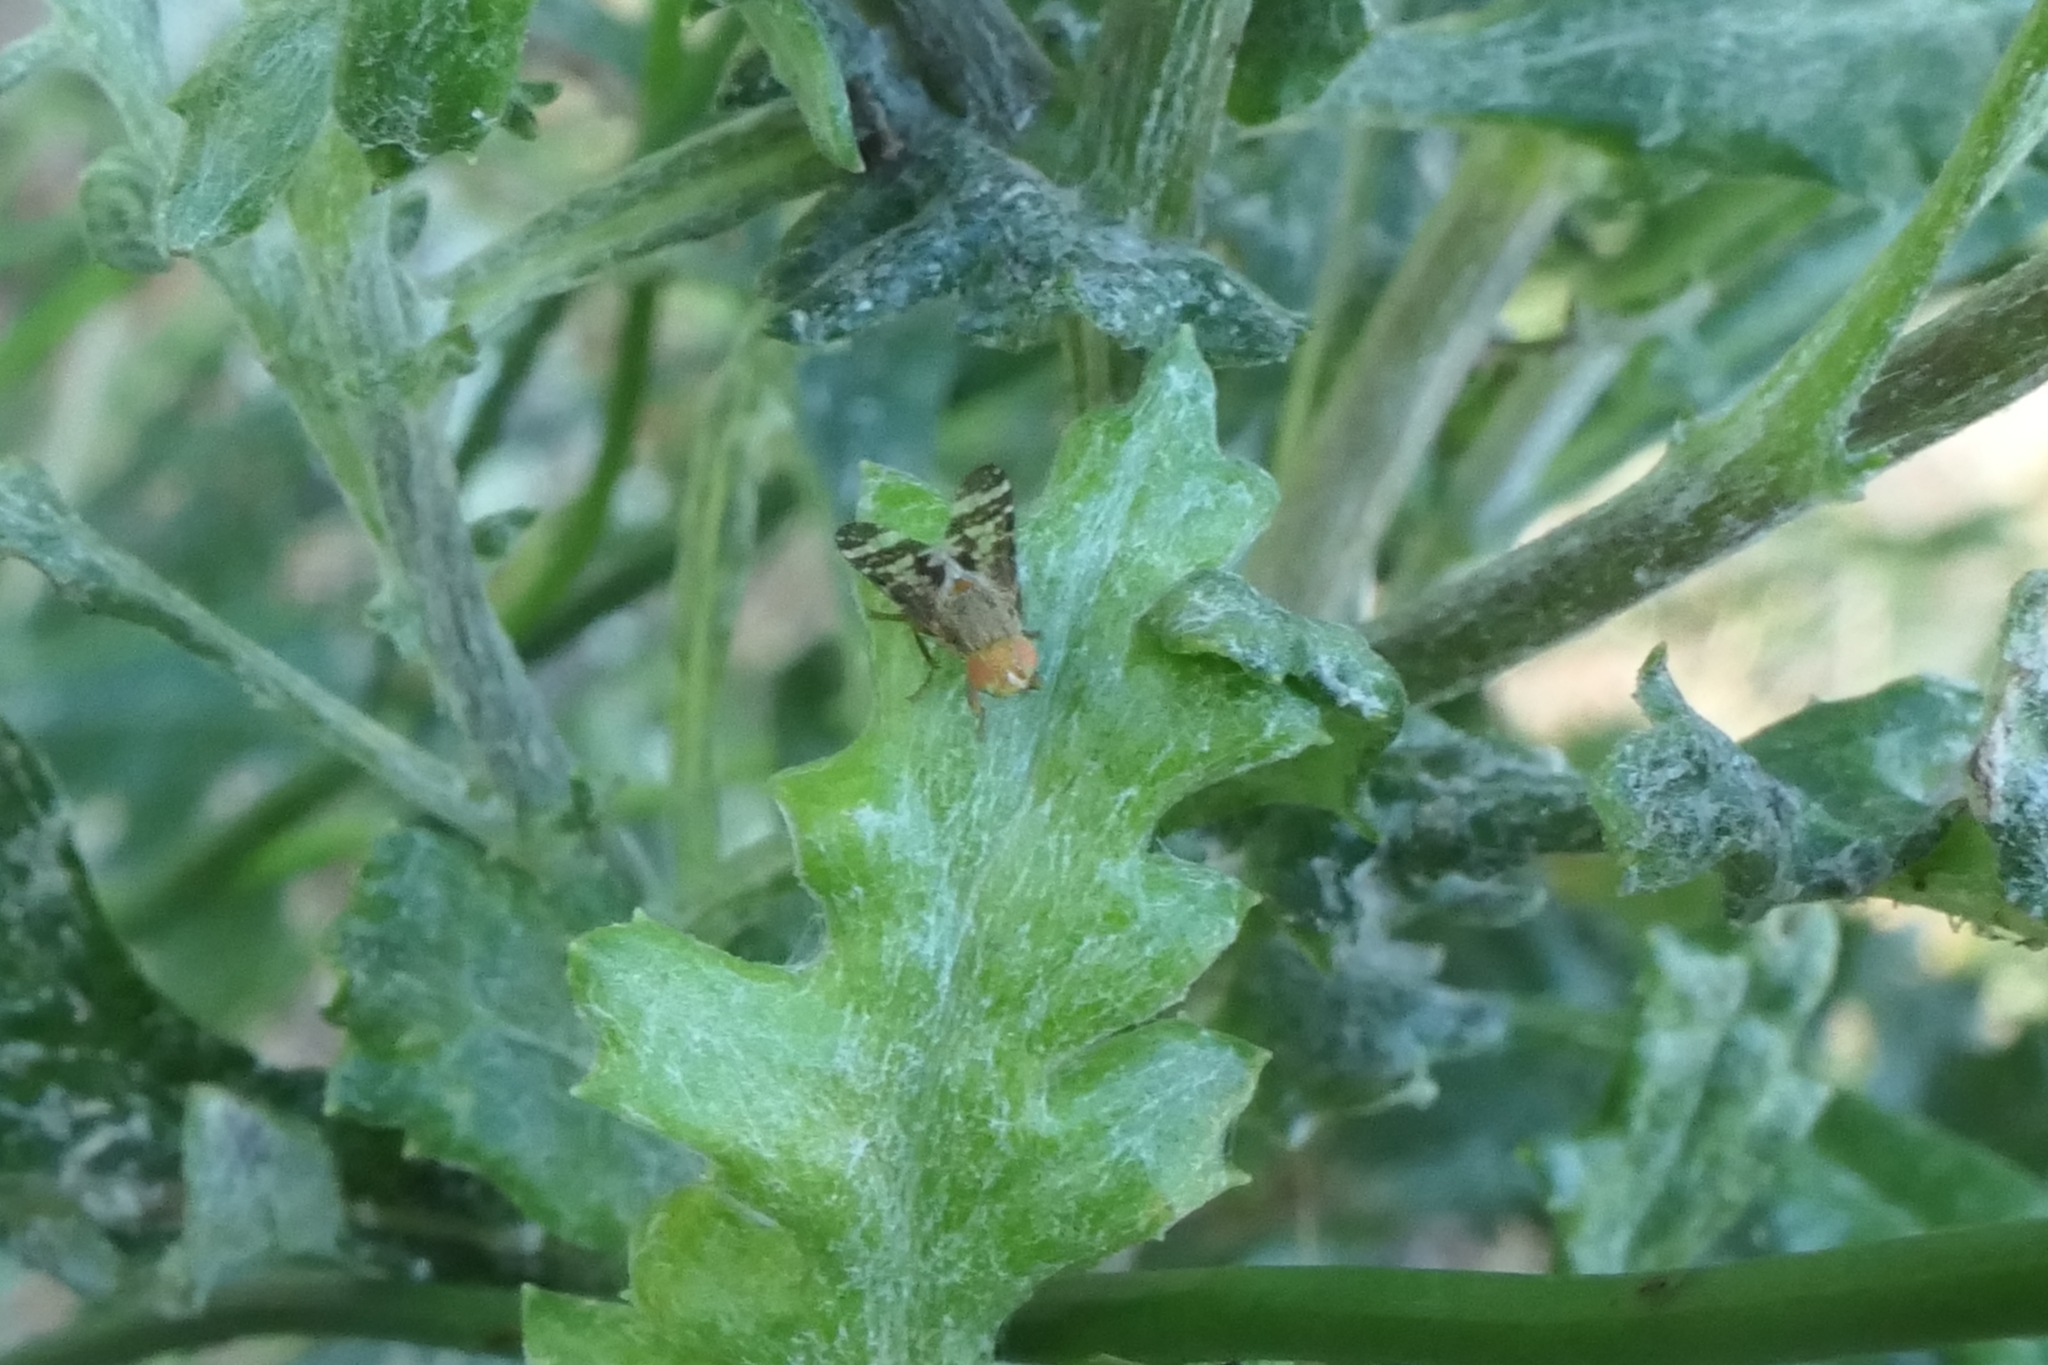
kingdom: Animalia
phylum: Arthropoda
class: Insecta
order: Diptera
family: Tephritidae
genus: Sphenella
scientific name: Sphenella
